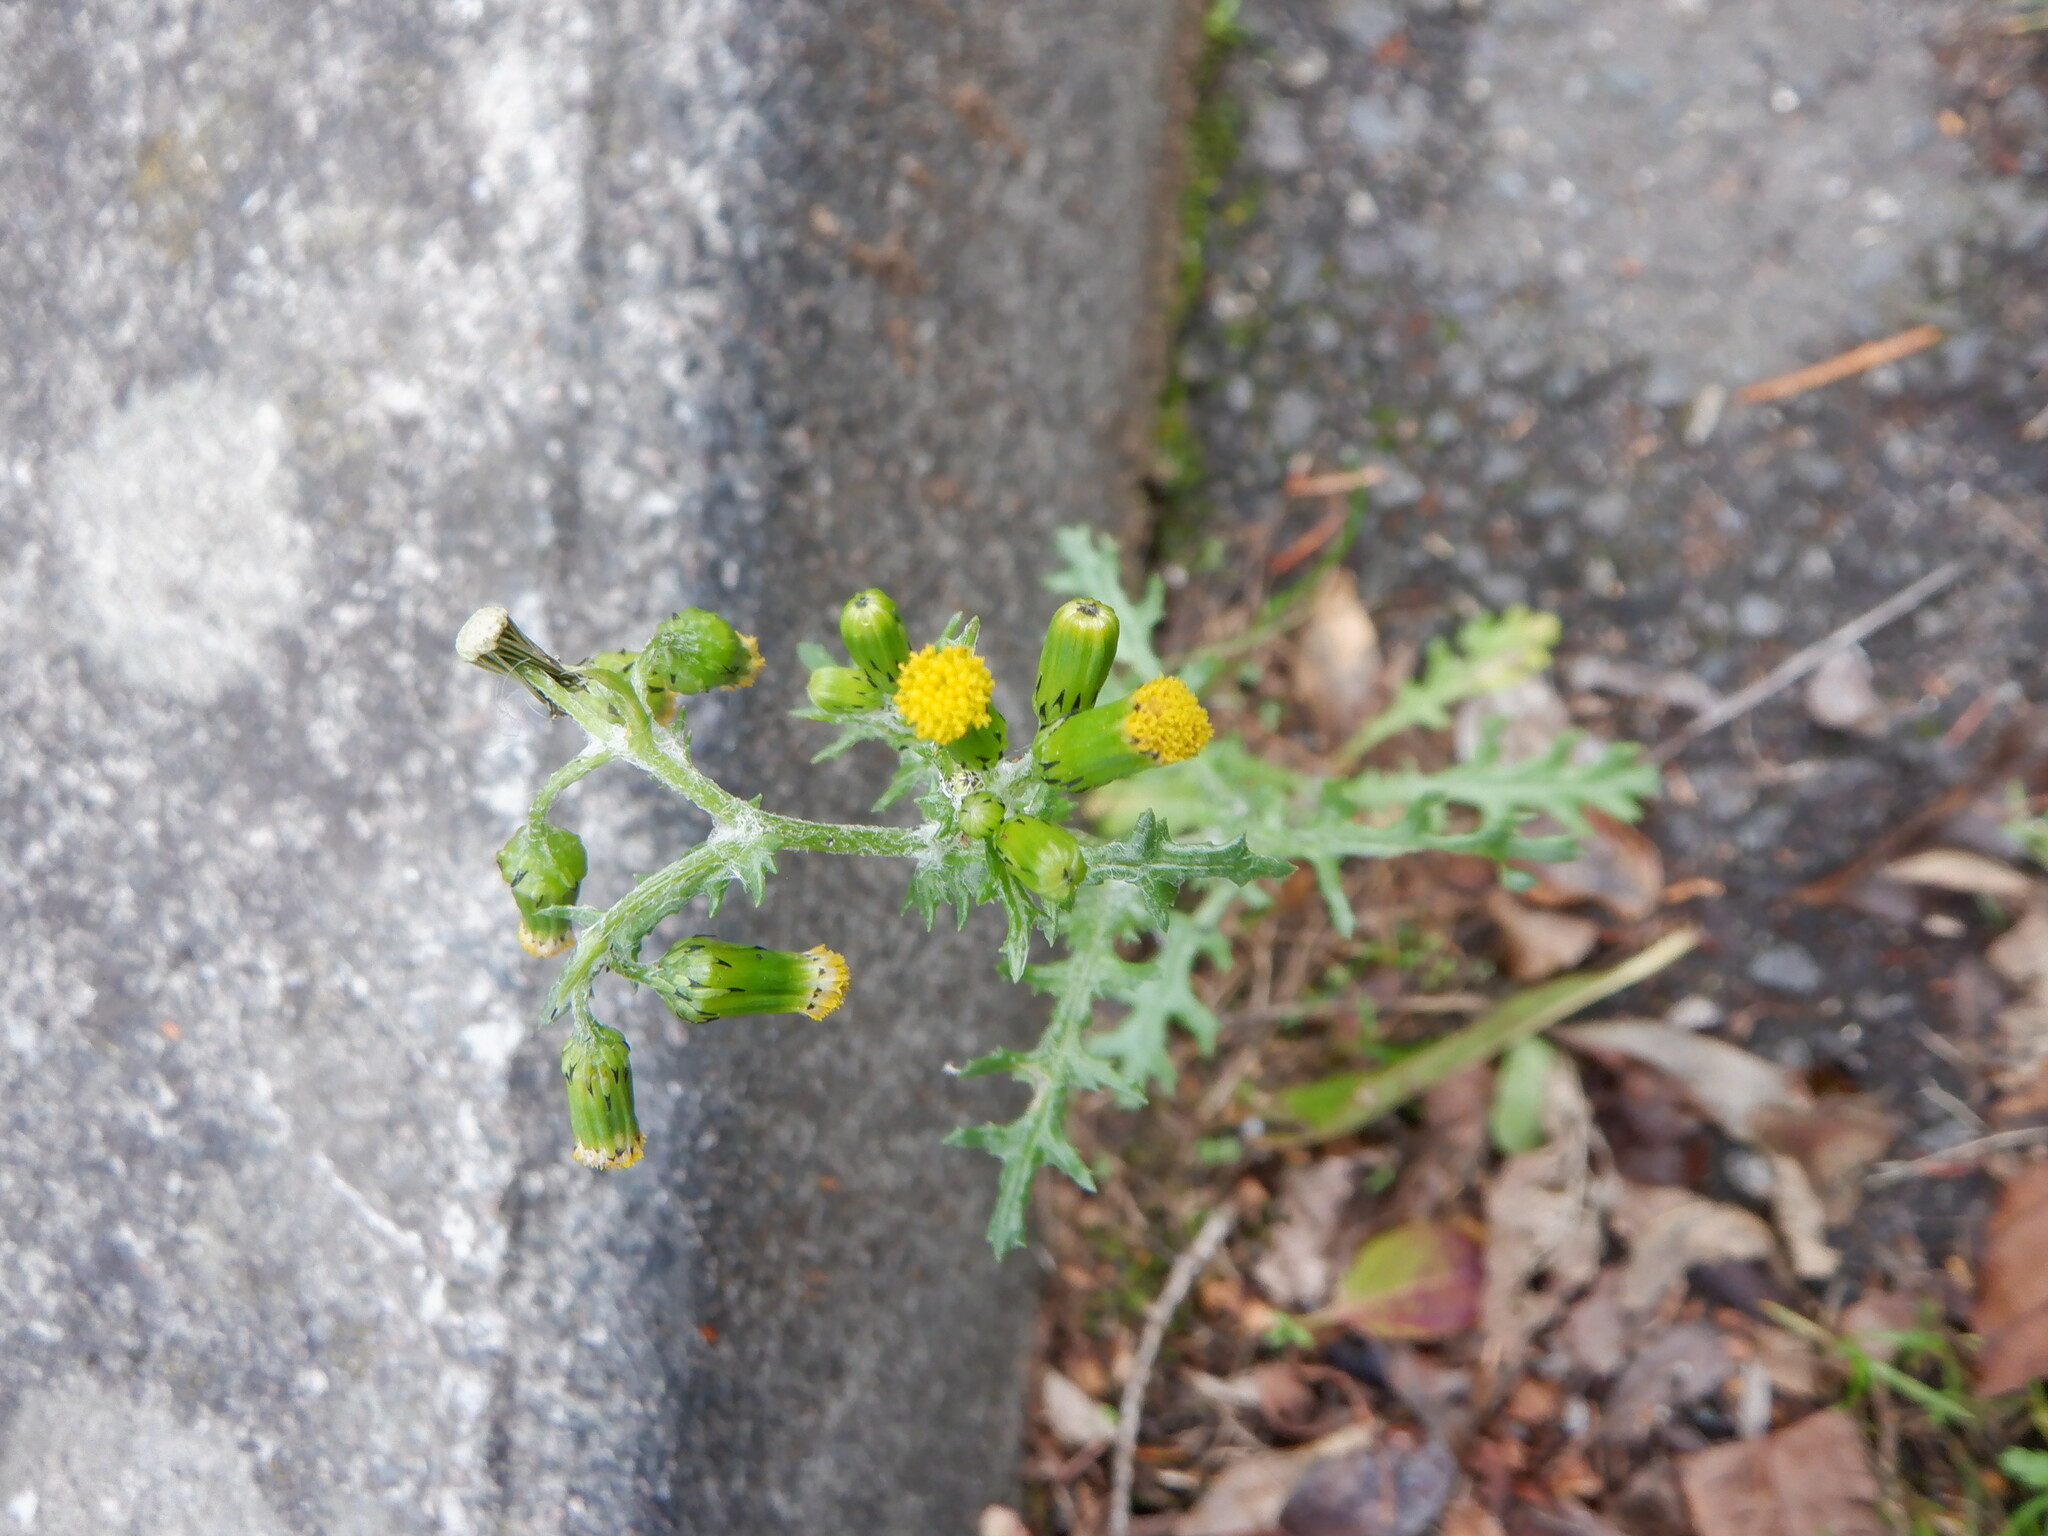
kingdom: Plantae
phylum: Tracheophyta
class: Magnoliopsida
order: Asterales
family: Asteraceae
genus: Senecio
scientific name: Senecio vulgaris
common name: Old-man-in-the-spring
